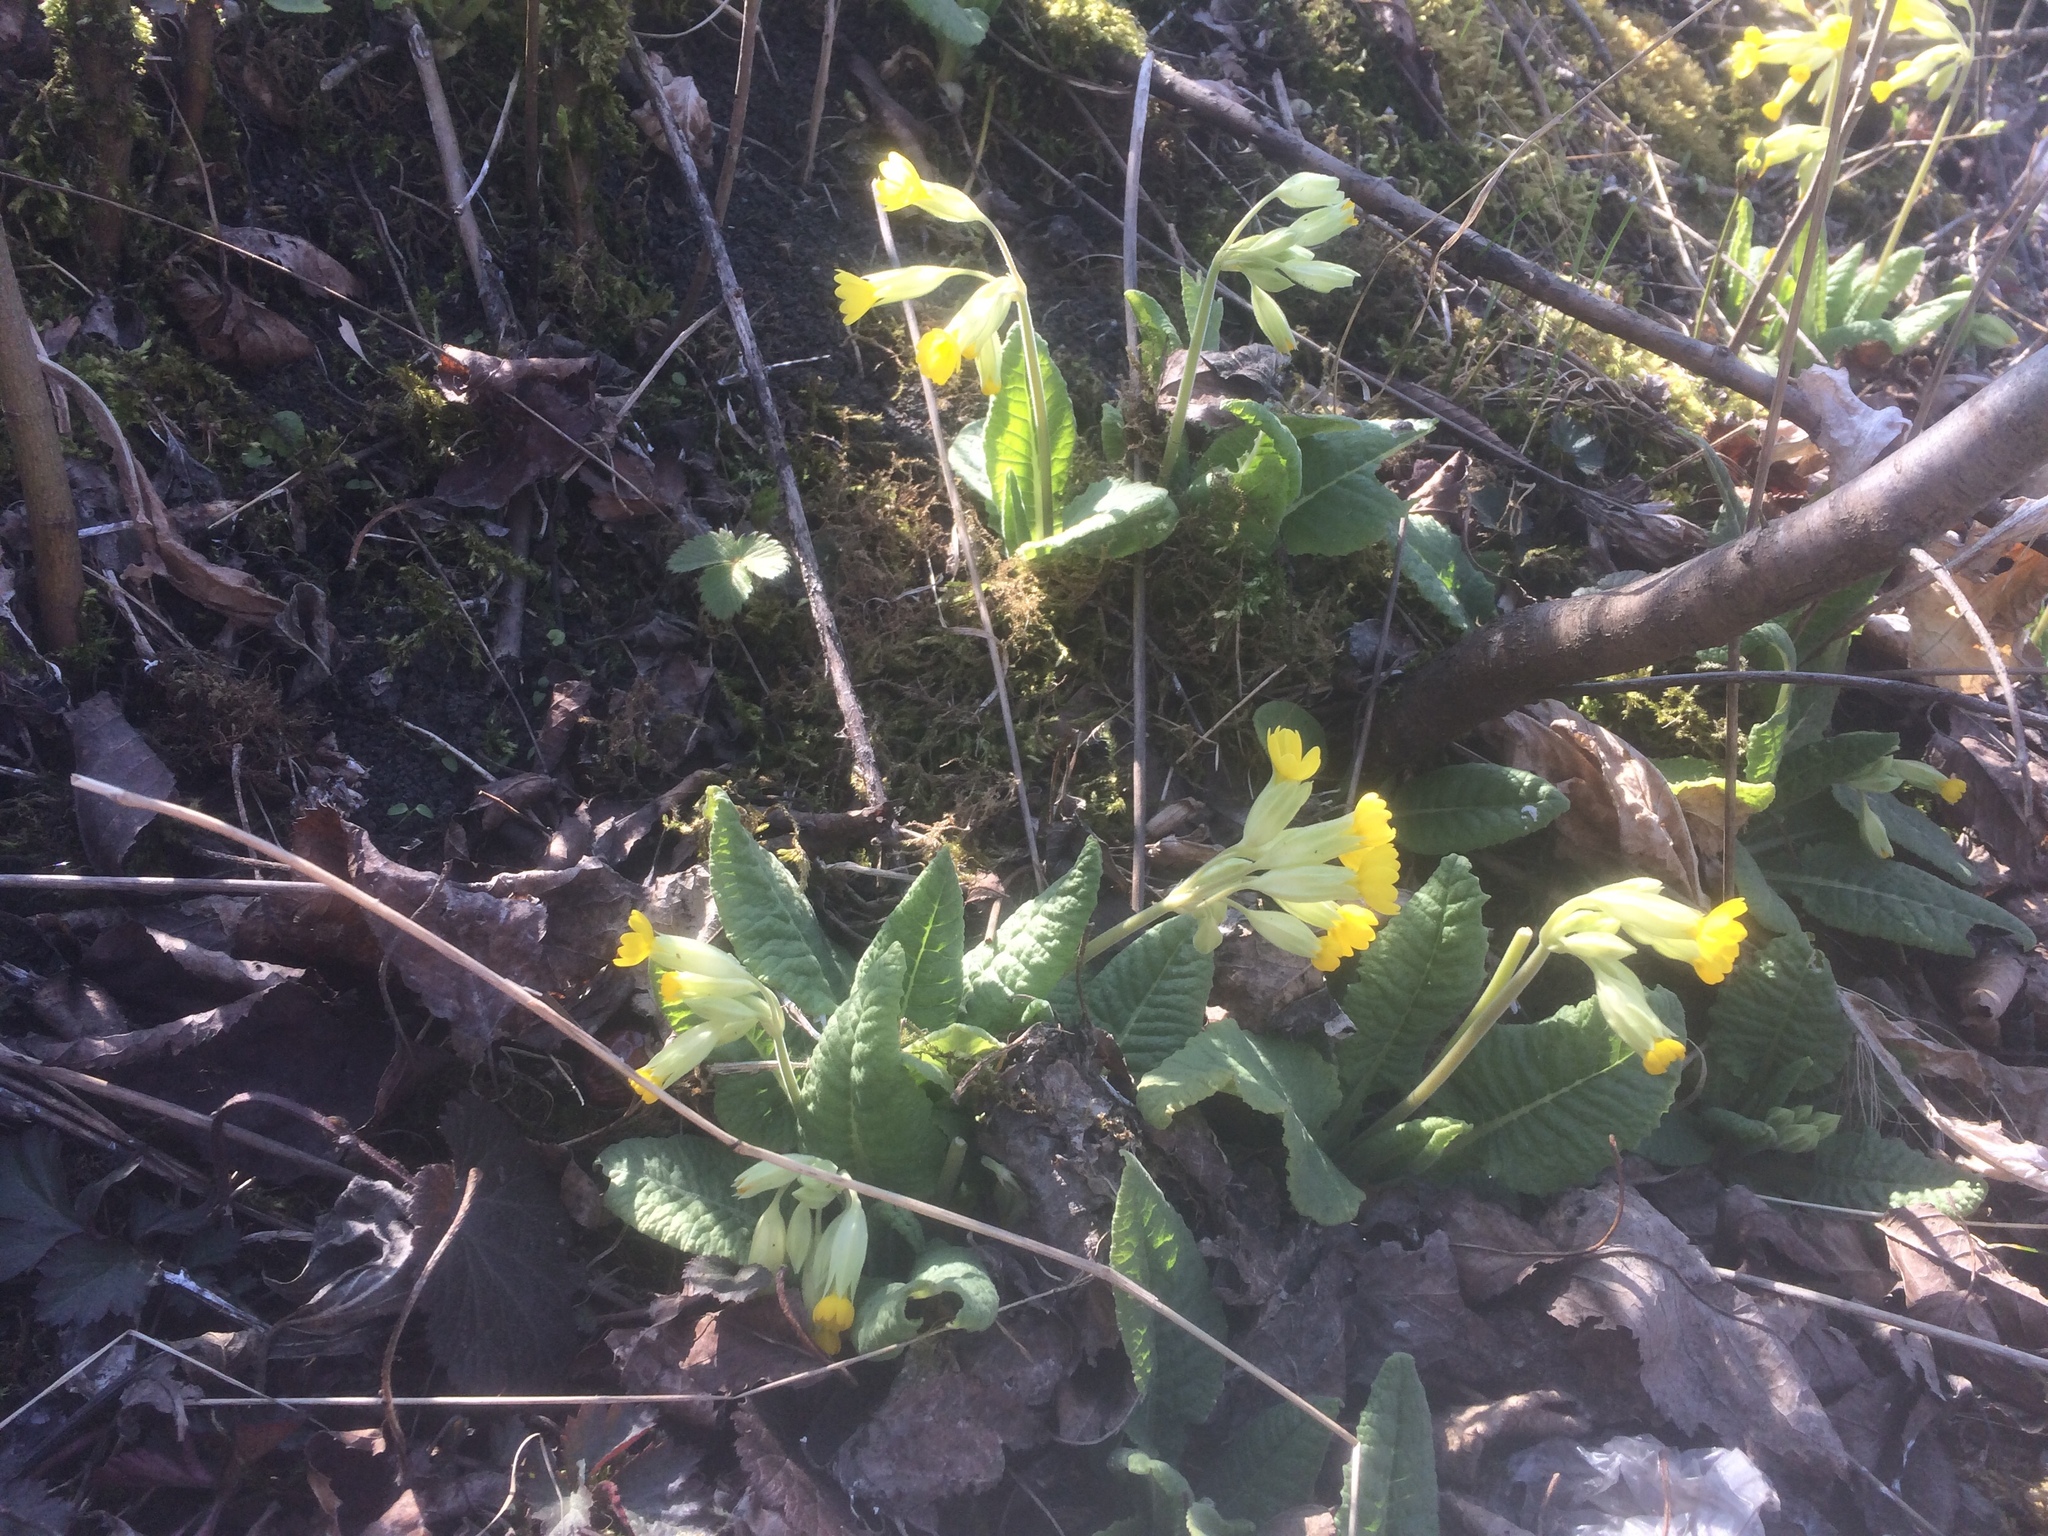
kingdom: Plantae
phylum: Tracheophyta
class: Magnoliopsida
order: Ericales
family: Primulaceae
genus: Primula
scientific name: Primula veris
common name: Cowslip
